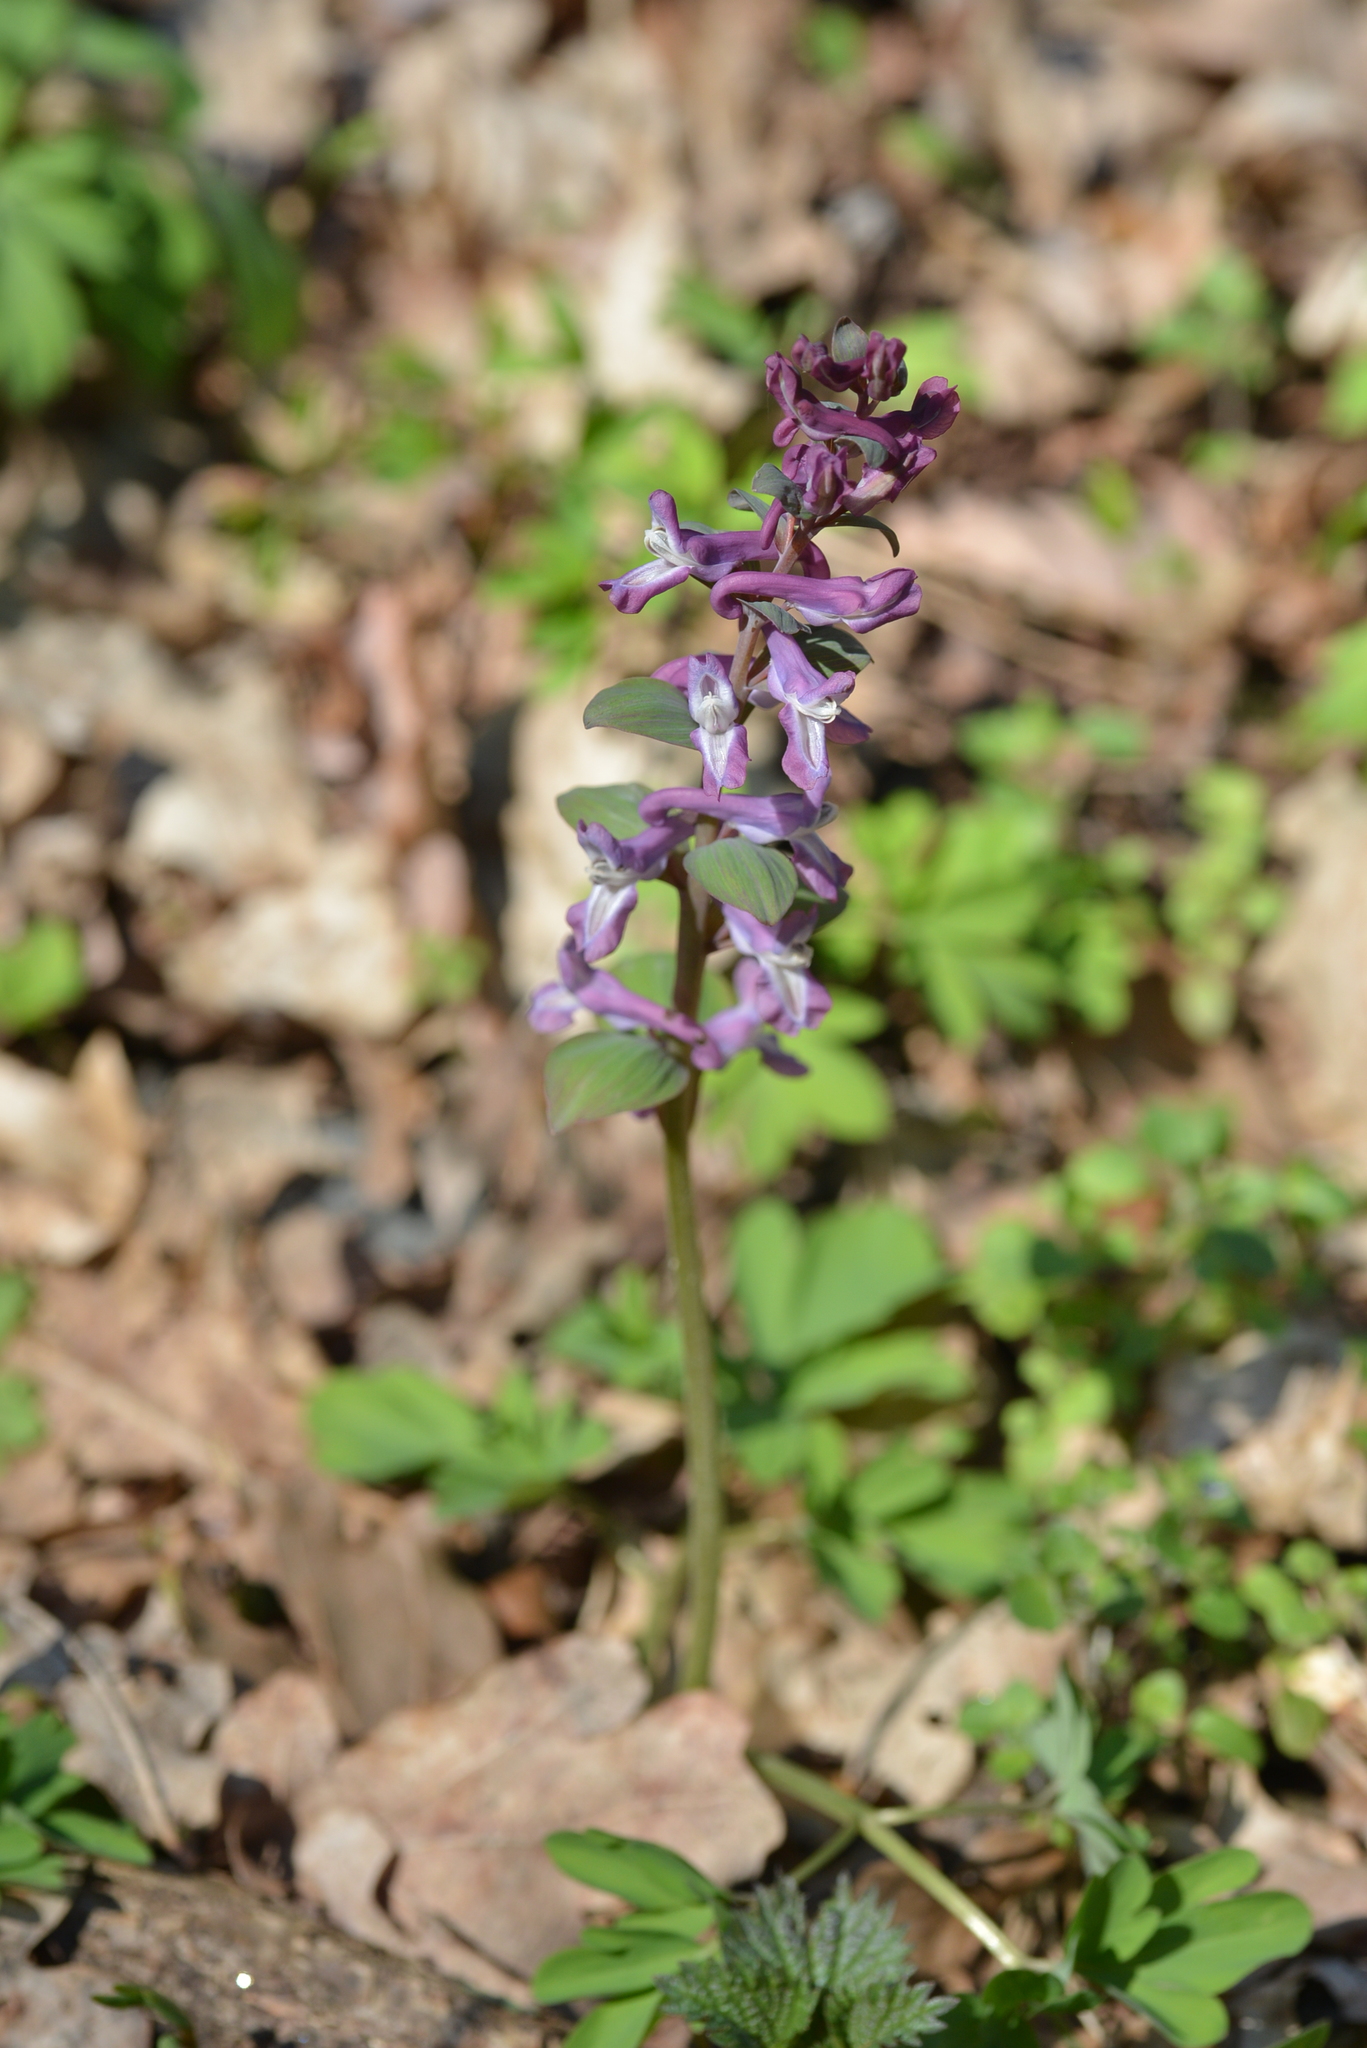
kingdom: Plantae
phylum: Tracheophyta
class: Magnoliopsida
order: Ranunculales
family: Papaveraceae
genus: Corydalis
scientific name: Corydalis cava
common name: Hollowroot
